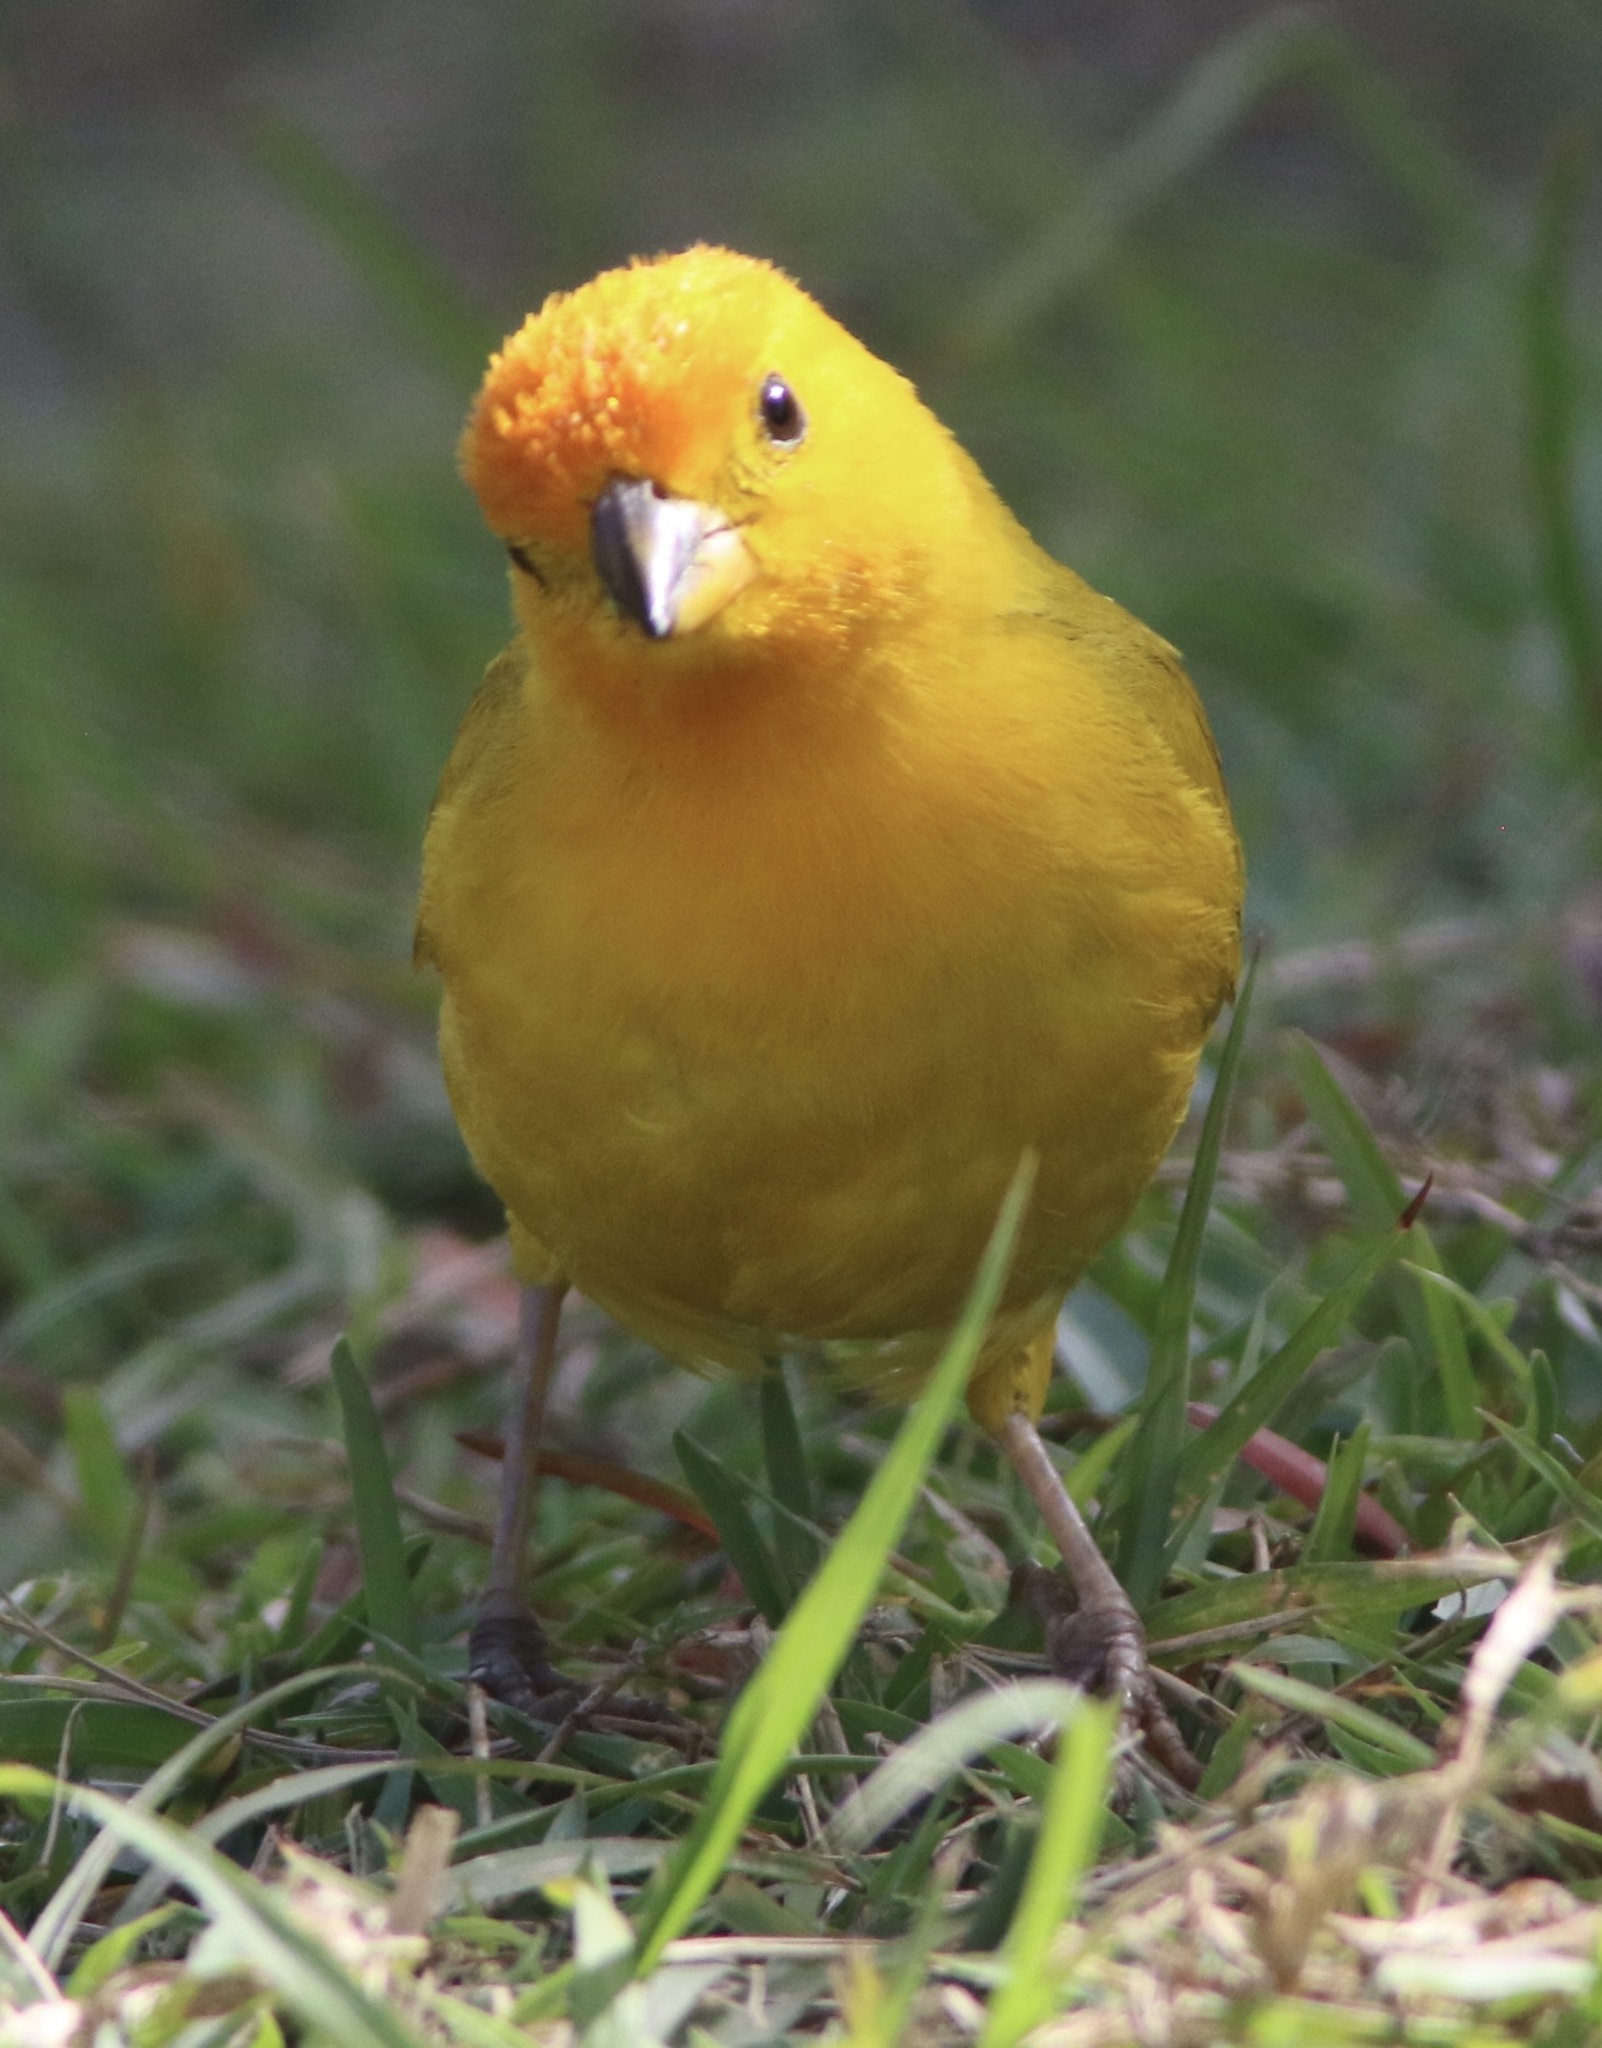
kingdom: Animalia
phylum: Chordata
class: Aves
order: Passeriformes
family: Thraupidae
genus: Sicalis
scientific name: Sicalis flaveola
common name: Saffron finch
